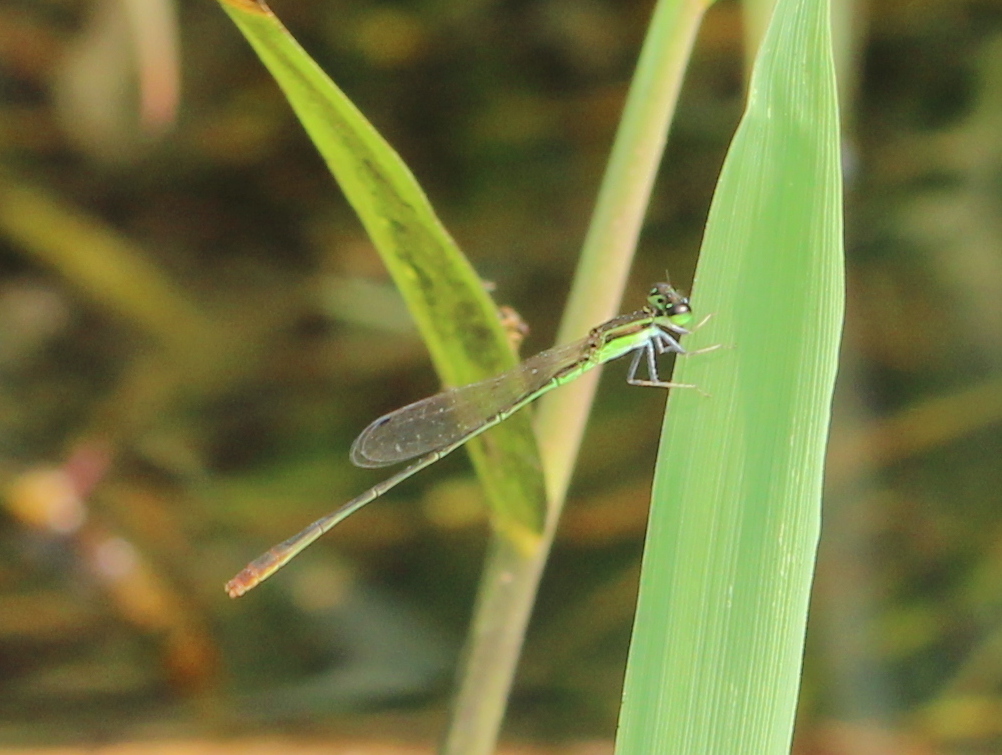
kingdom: Animalia
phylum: Arthropoda
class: Insecta
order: Odonata
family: Coenagrionidae
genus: Agriocnemis
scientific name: Agriocnemis pygmaea
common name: Pygmy wisp
